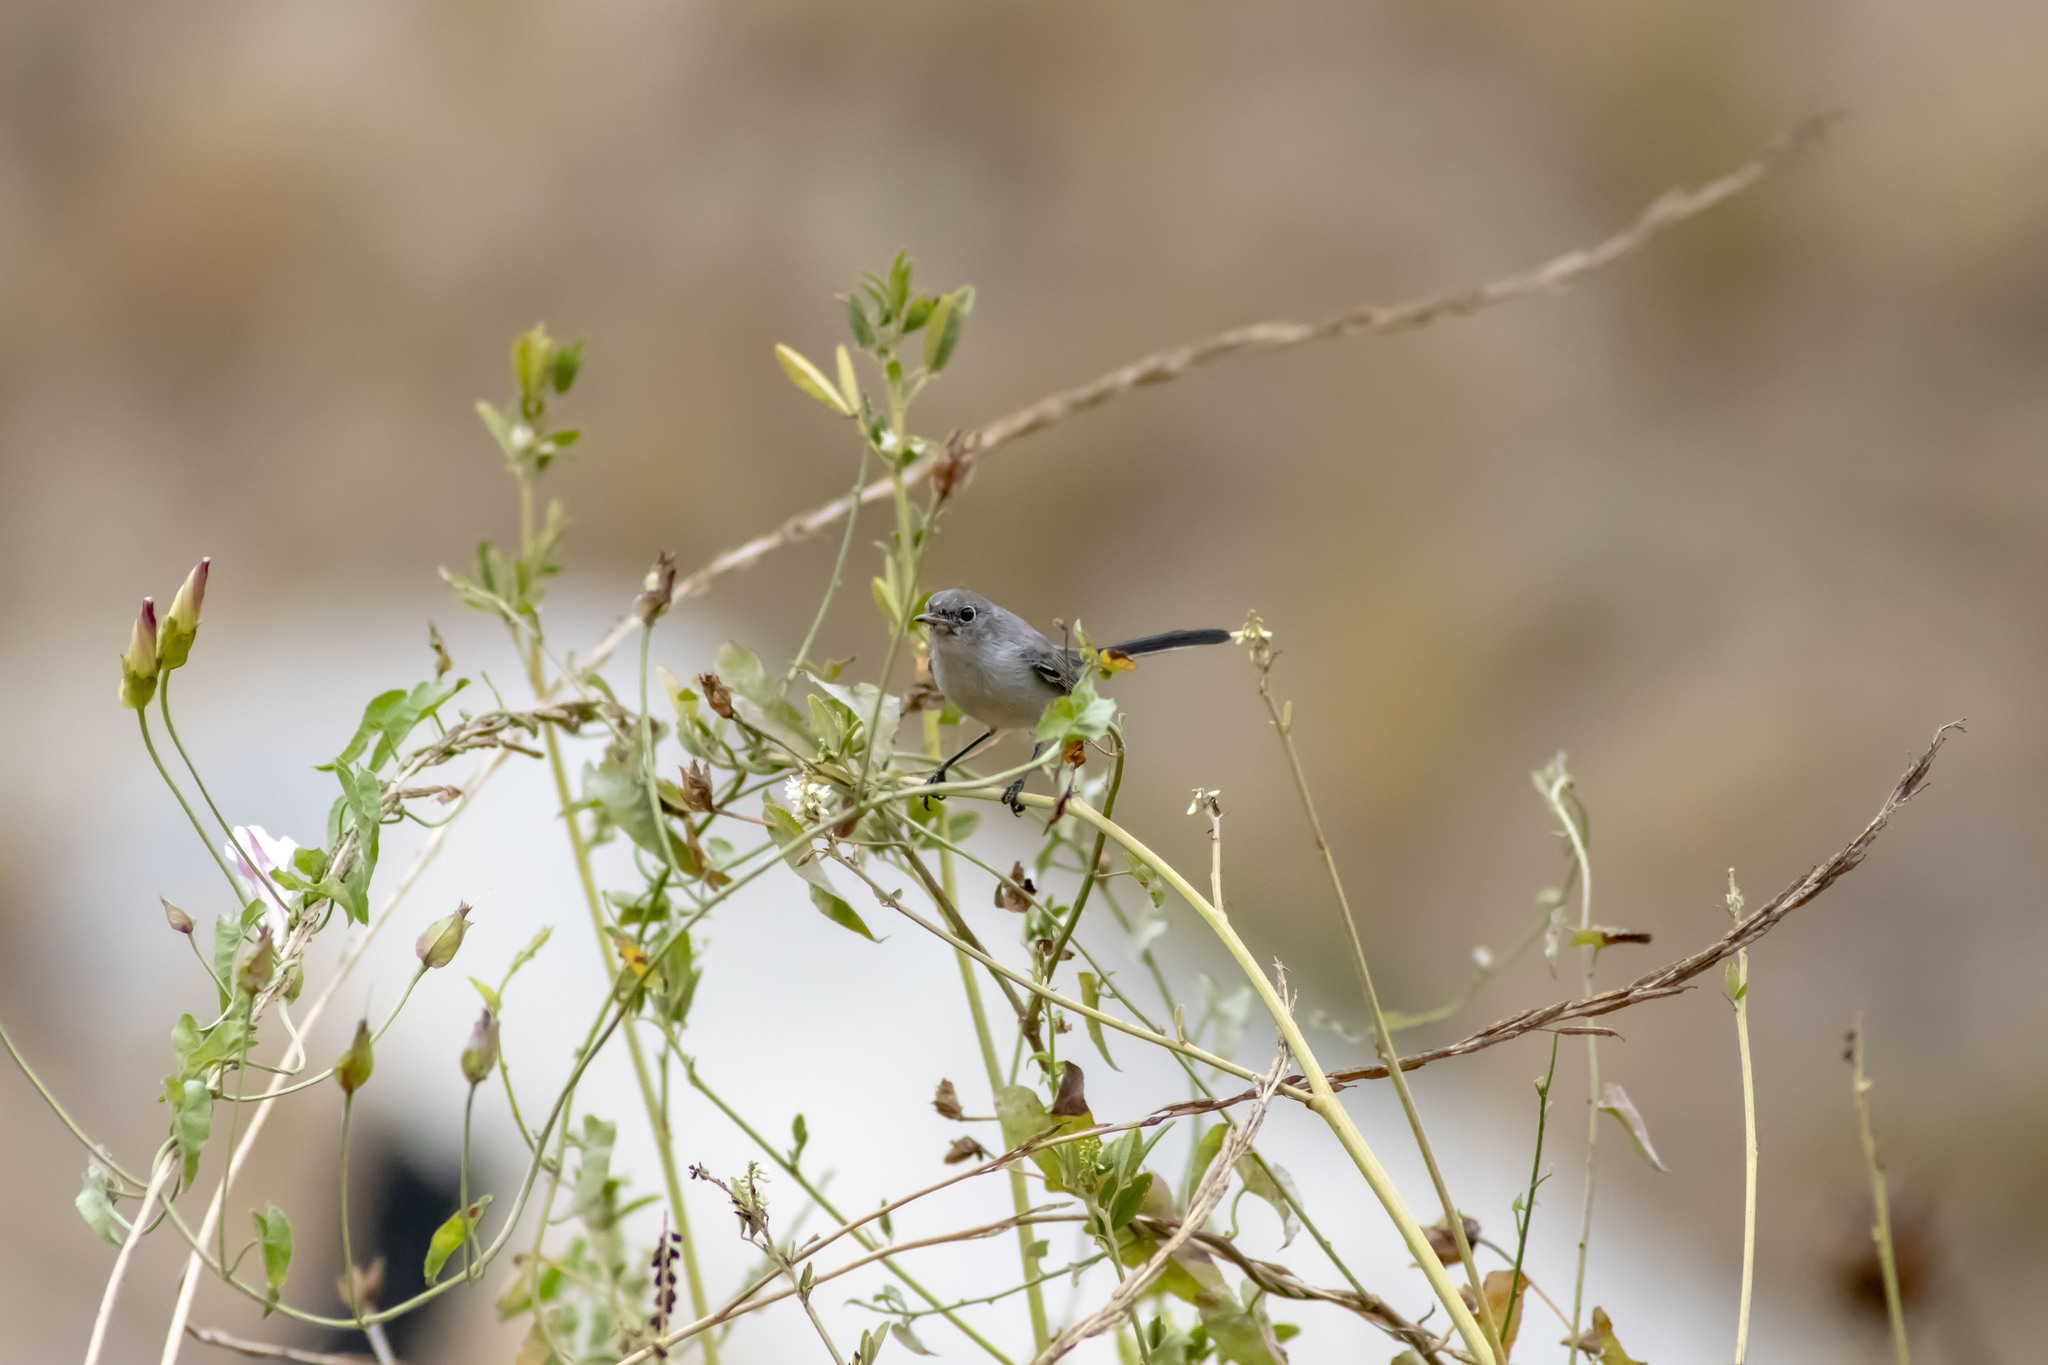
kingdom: Animalia
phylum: Chordata
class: Aves
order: Passeriformes
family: Polioptilidae
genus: Polioptila
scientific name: Polioptila caerulea
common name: Blue-gray gnatcatcher
